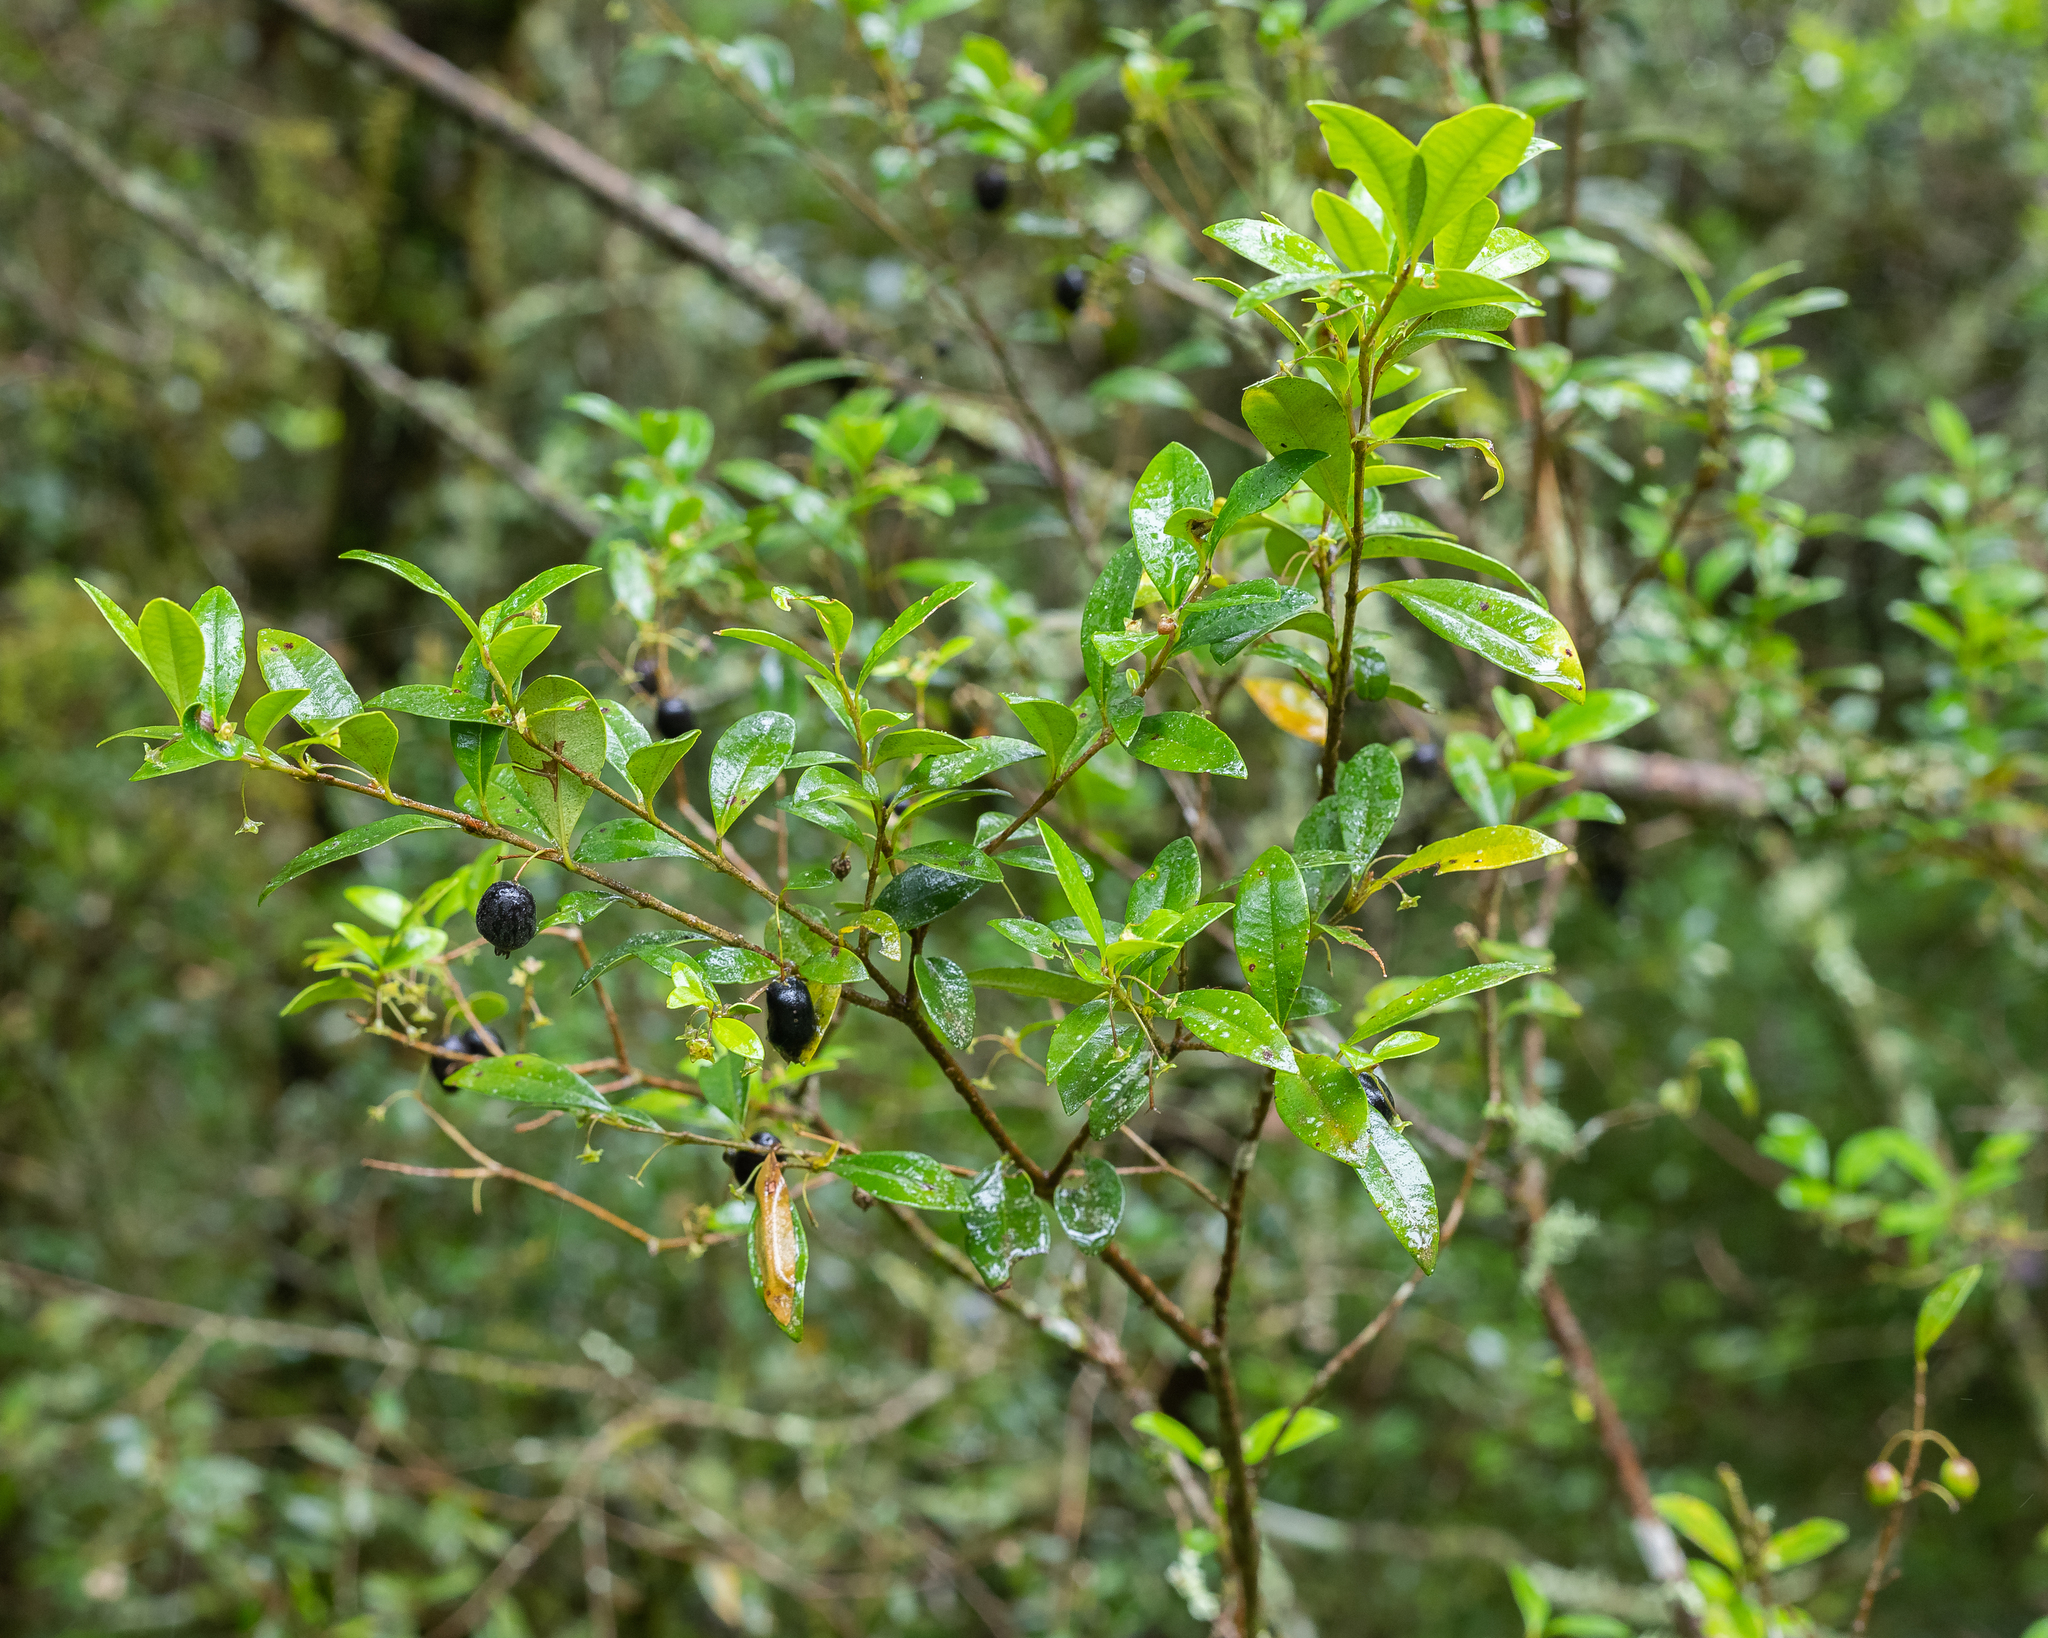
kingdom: Plantae
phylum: Tracheophyta
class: Magnoliopsida
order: Myrtales
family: Myrtaceae
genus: Myrceugenia
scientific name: Myrceugenia ovata
